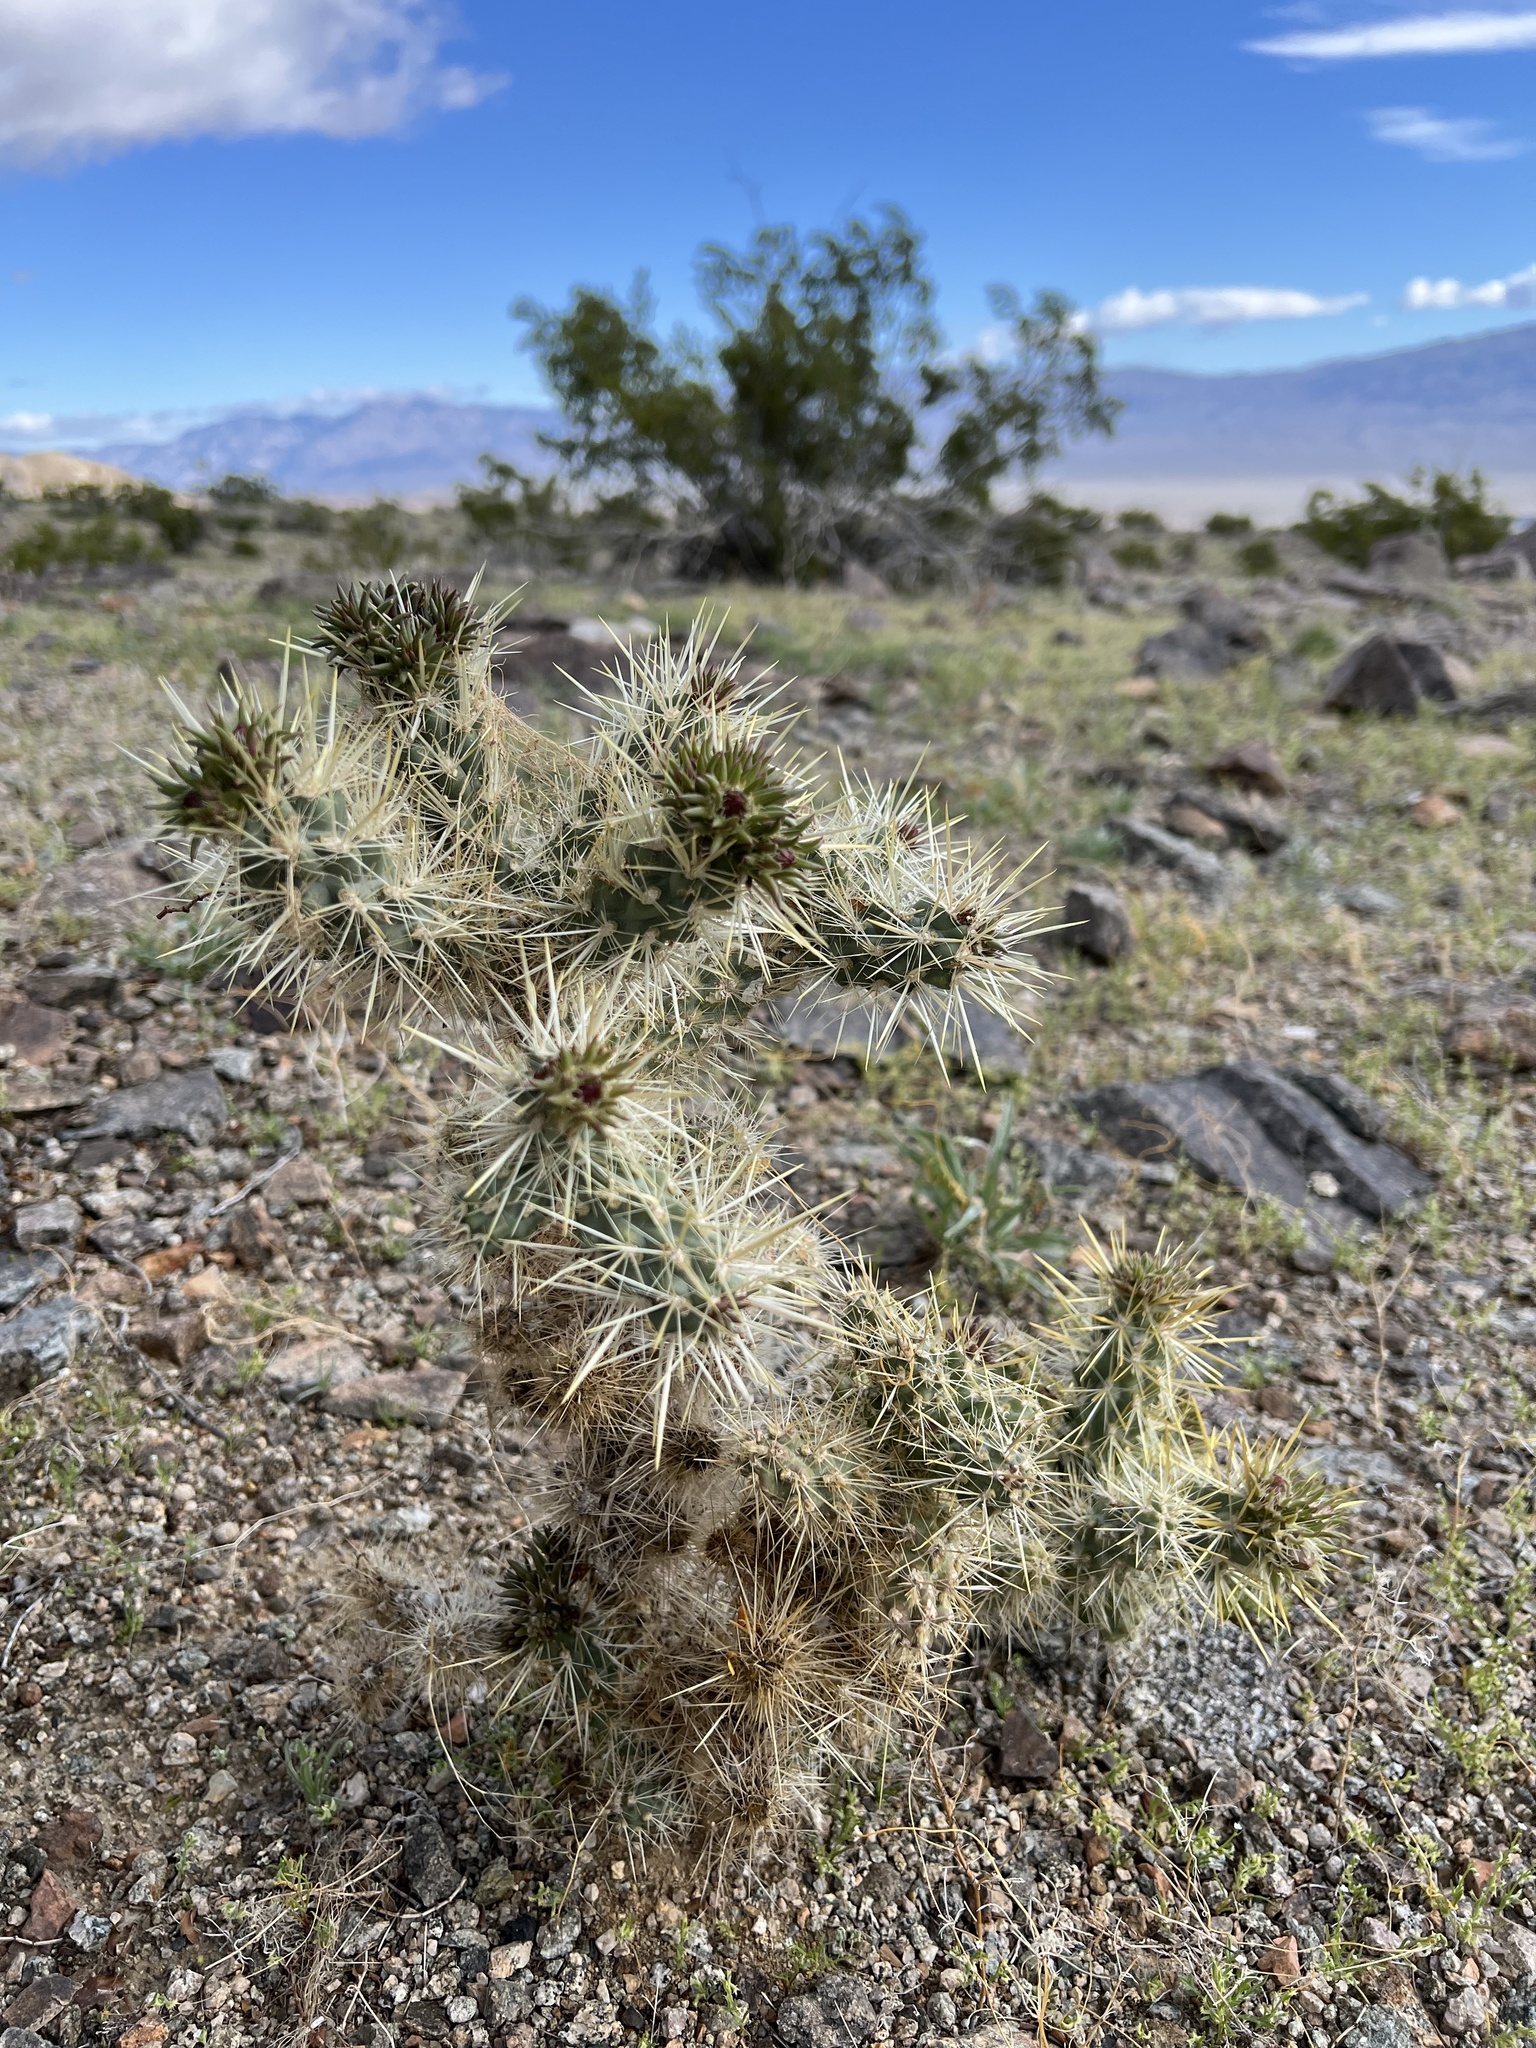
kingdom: Plantae
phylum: Tracheophyta
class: Magnoliopsida
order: Caryophyllales
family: Cactaceae
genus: Cylindropuntia
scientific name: Cylindropuntia echinocarpa
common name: Ground cholla
